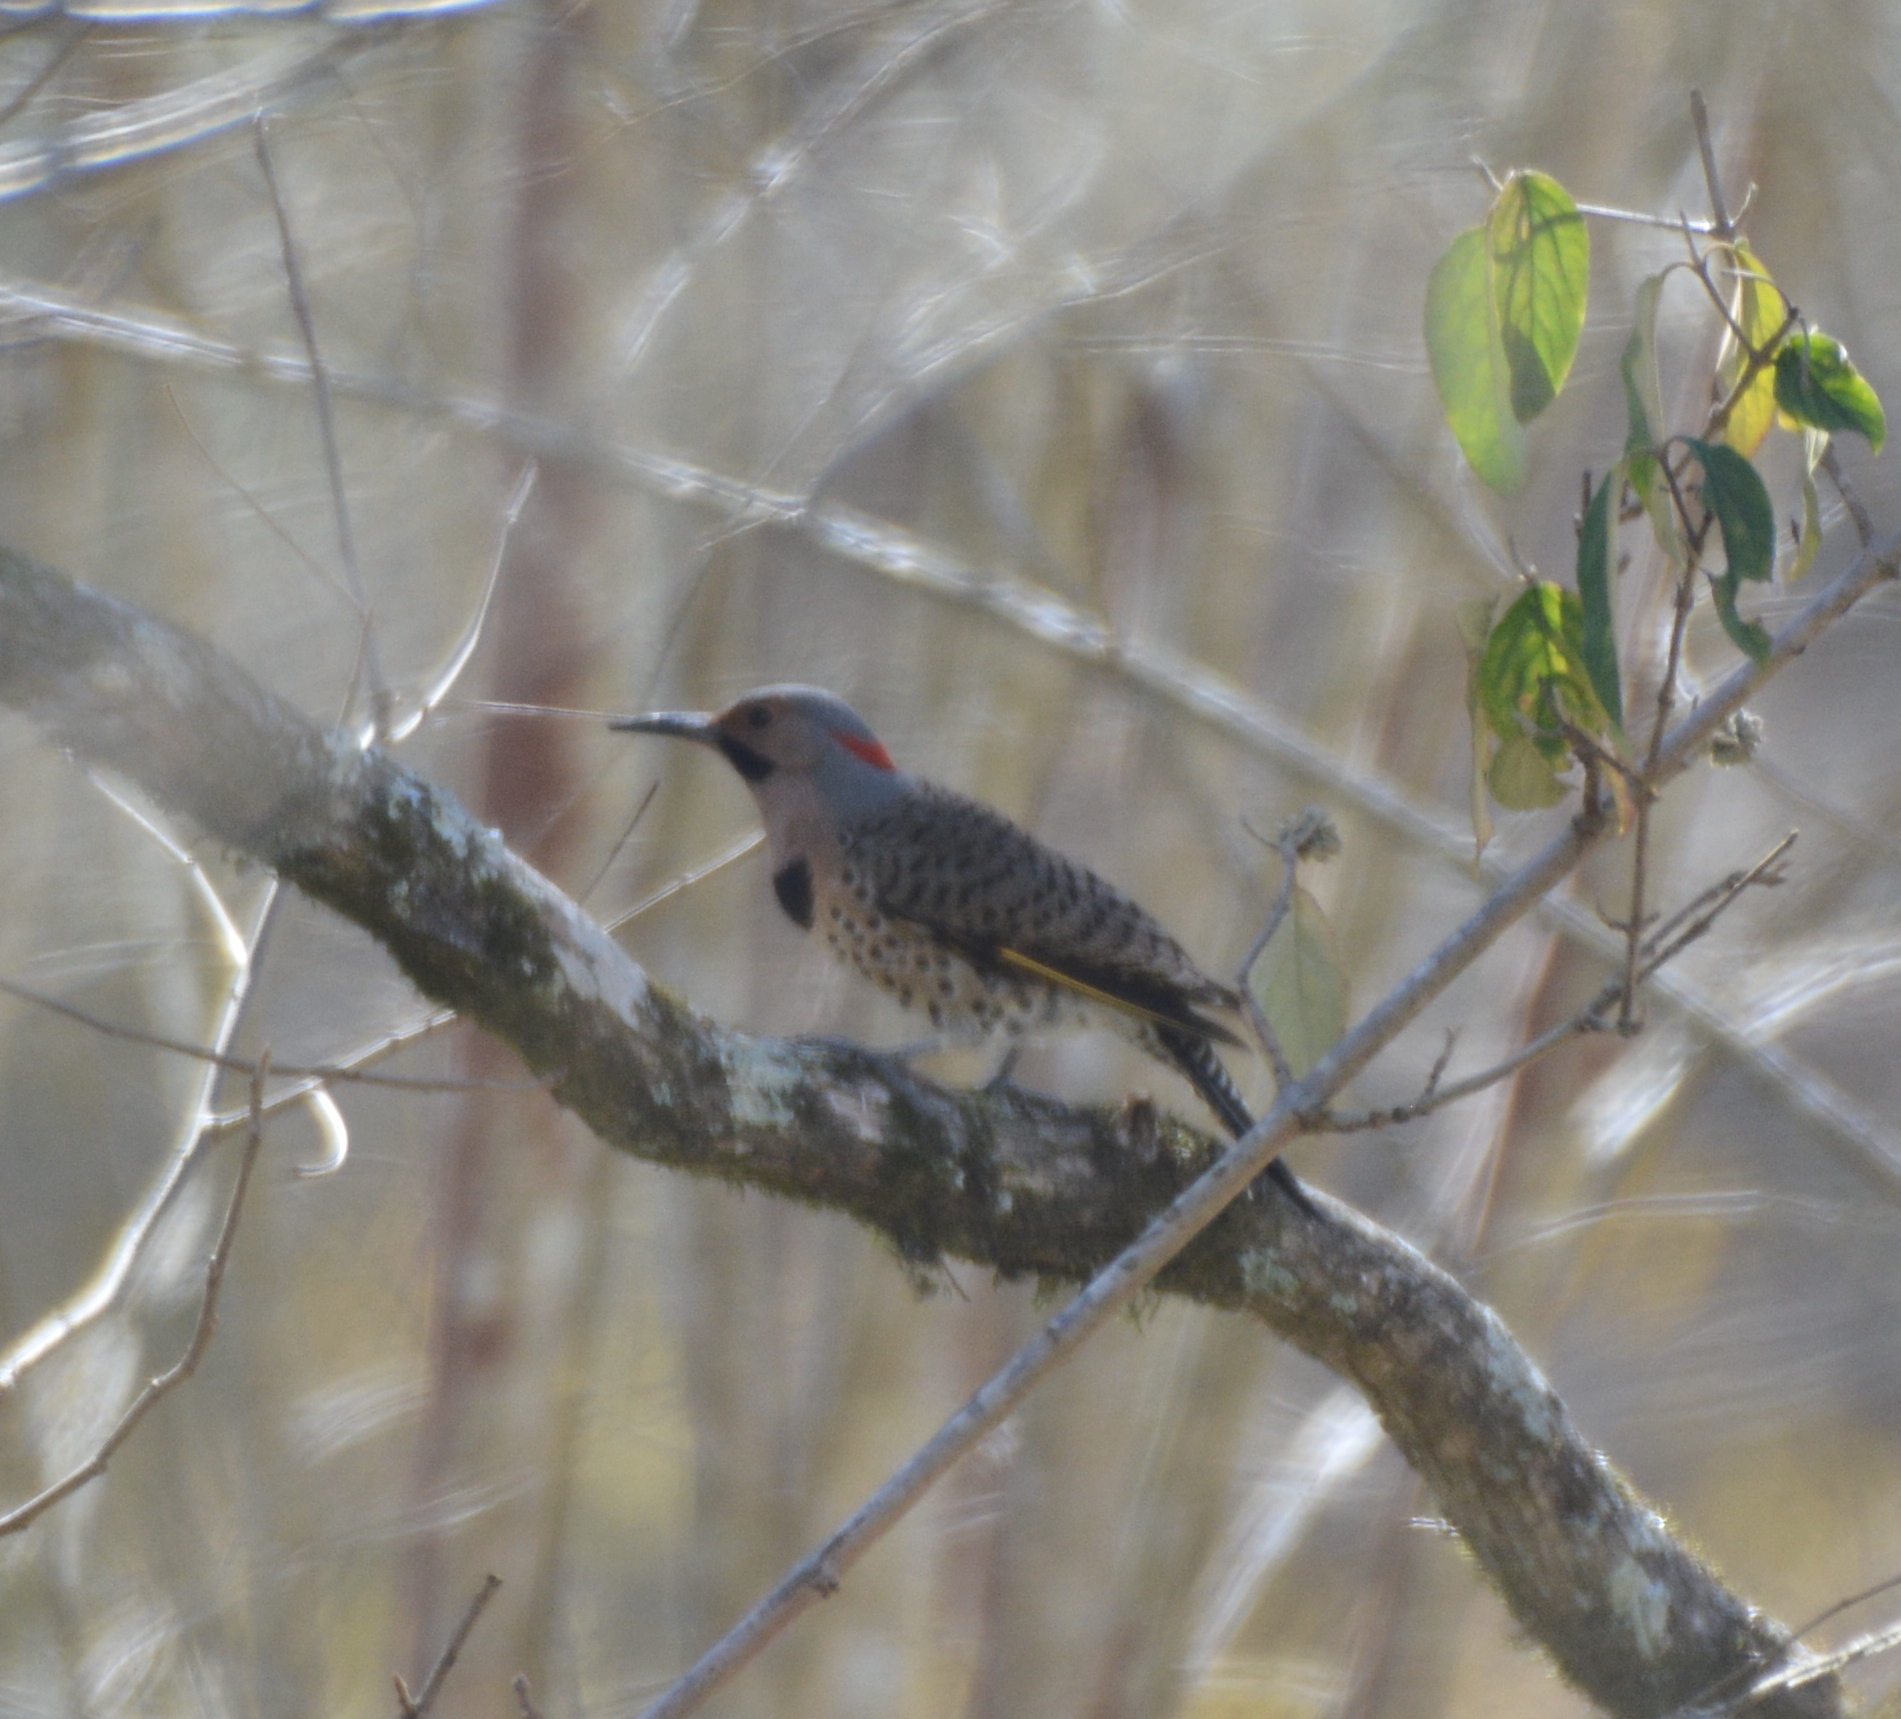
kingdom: Animalia
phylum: Chordata
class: Aves
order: Piciformes
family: Picidae
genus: Colaptes
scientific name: Colaptes auratus
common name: Northern flicker
